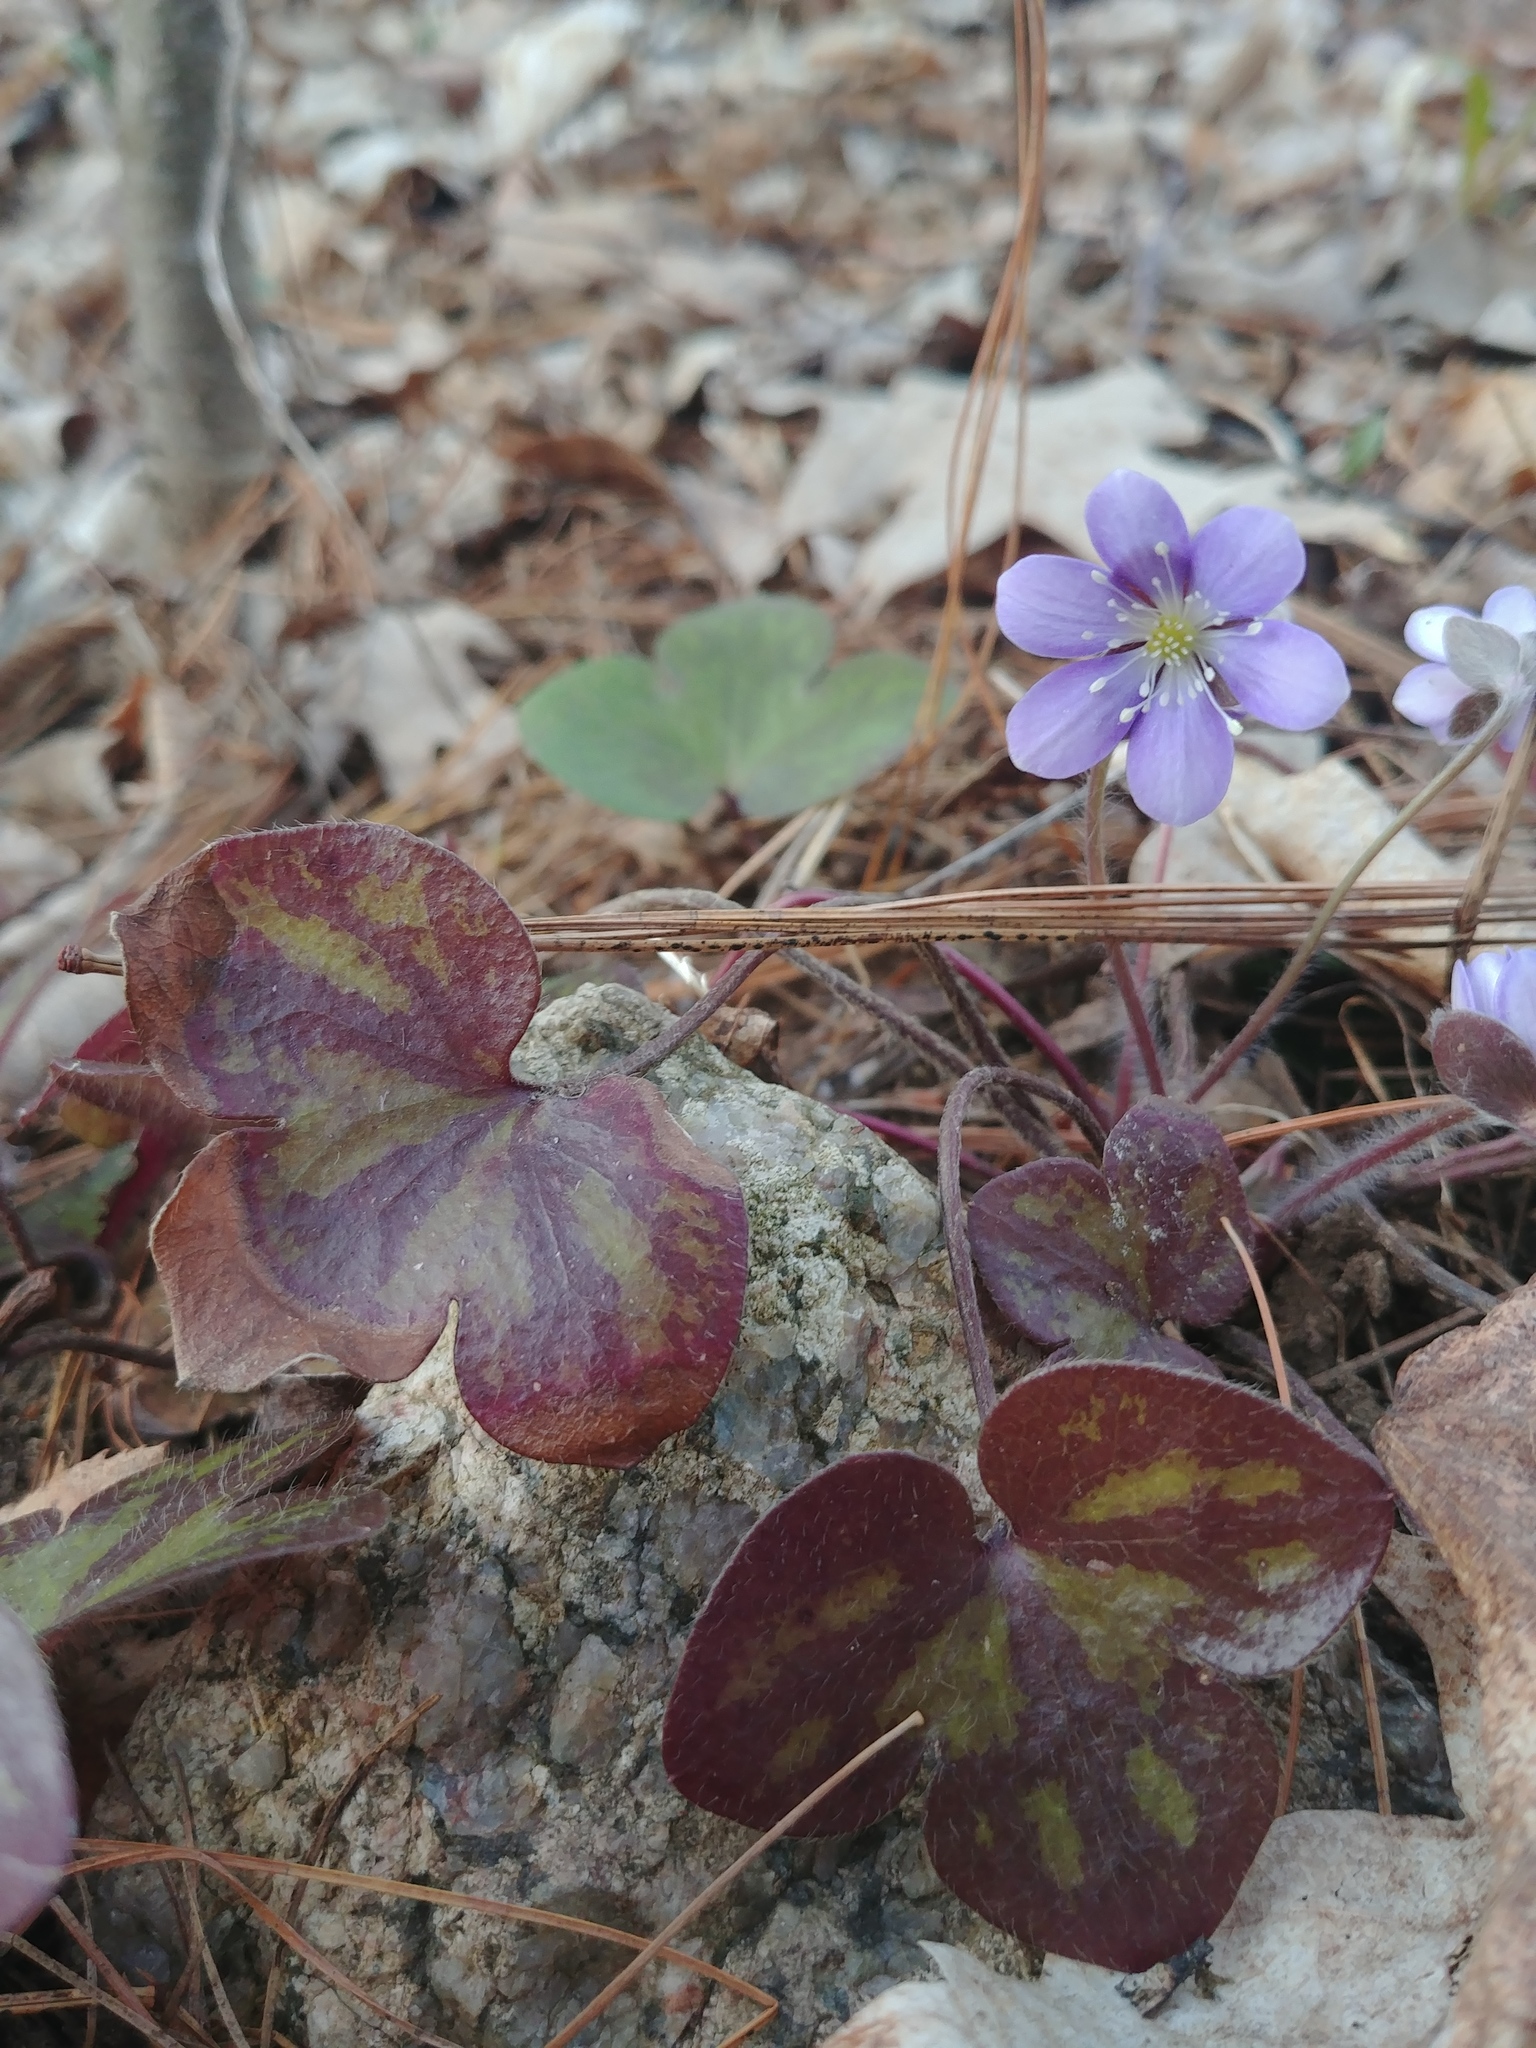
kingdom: Plantae
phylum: Tracheophyta
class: Magnoliopsida
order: Ranunculales
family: Ranunculaceae
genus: Hepatica
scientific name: Hepatica americana
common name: American hepatica
